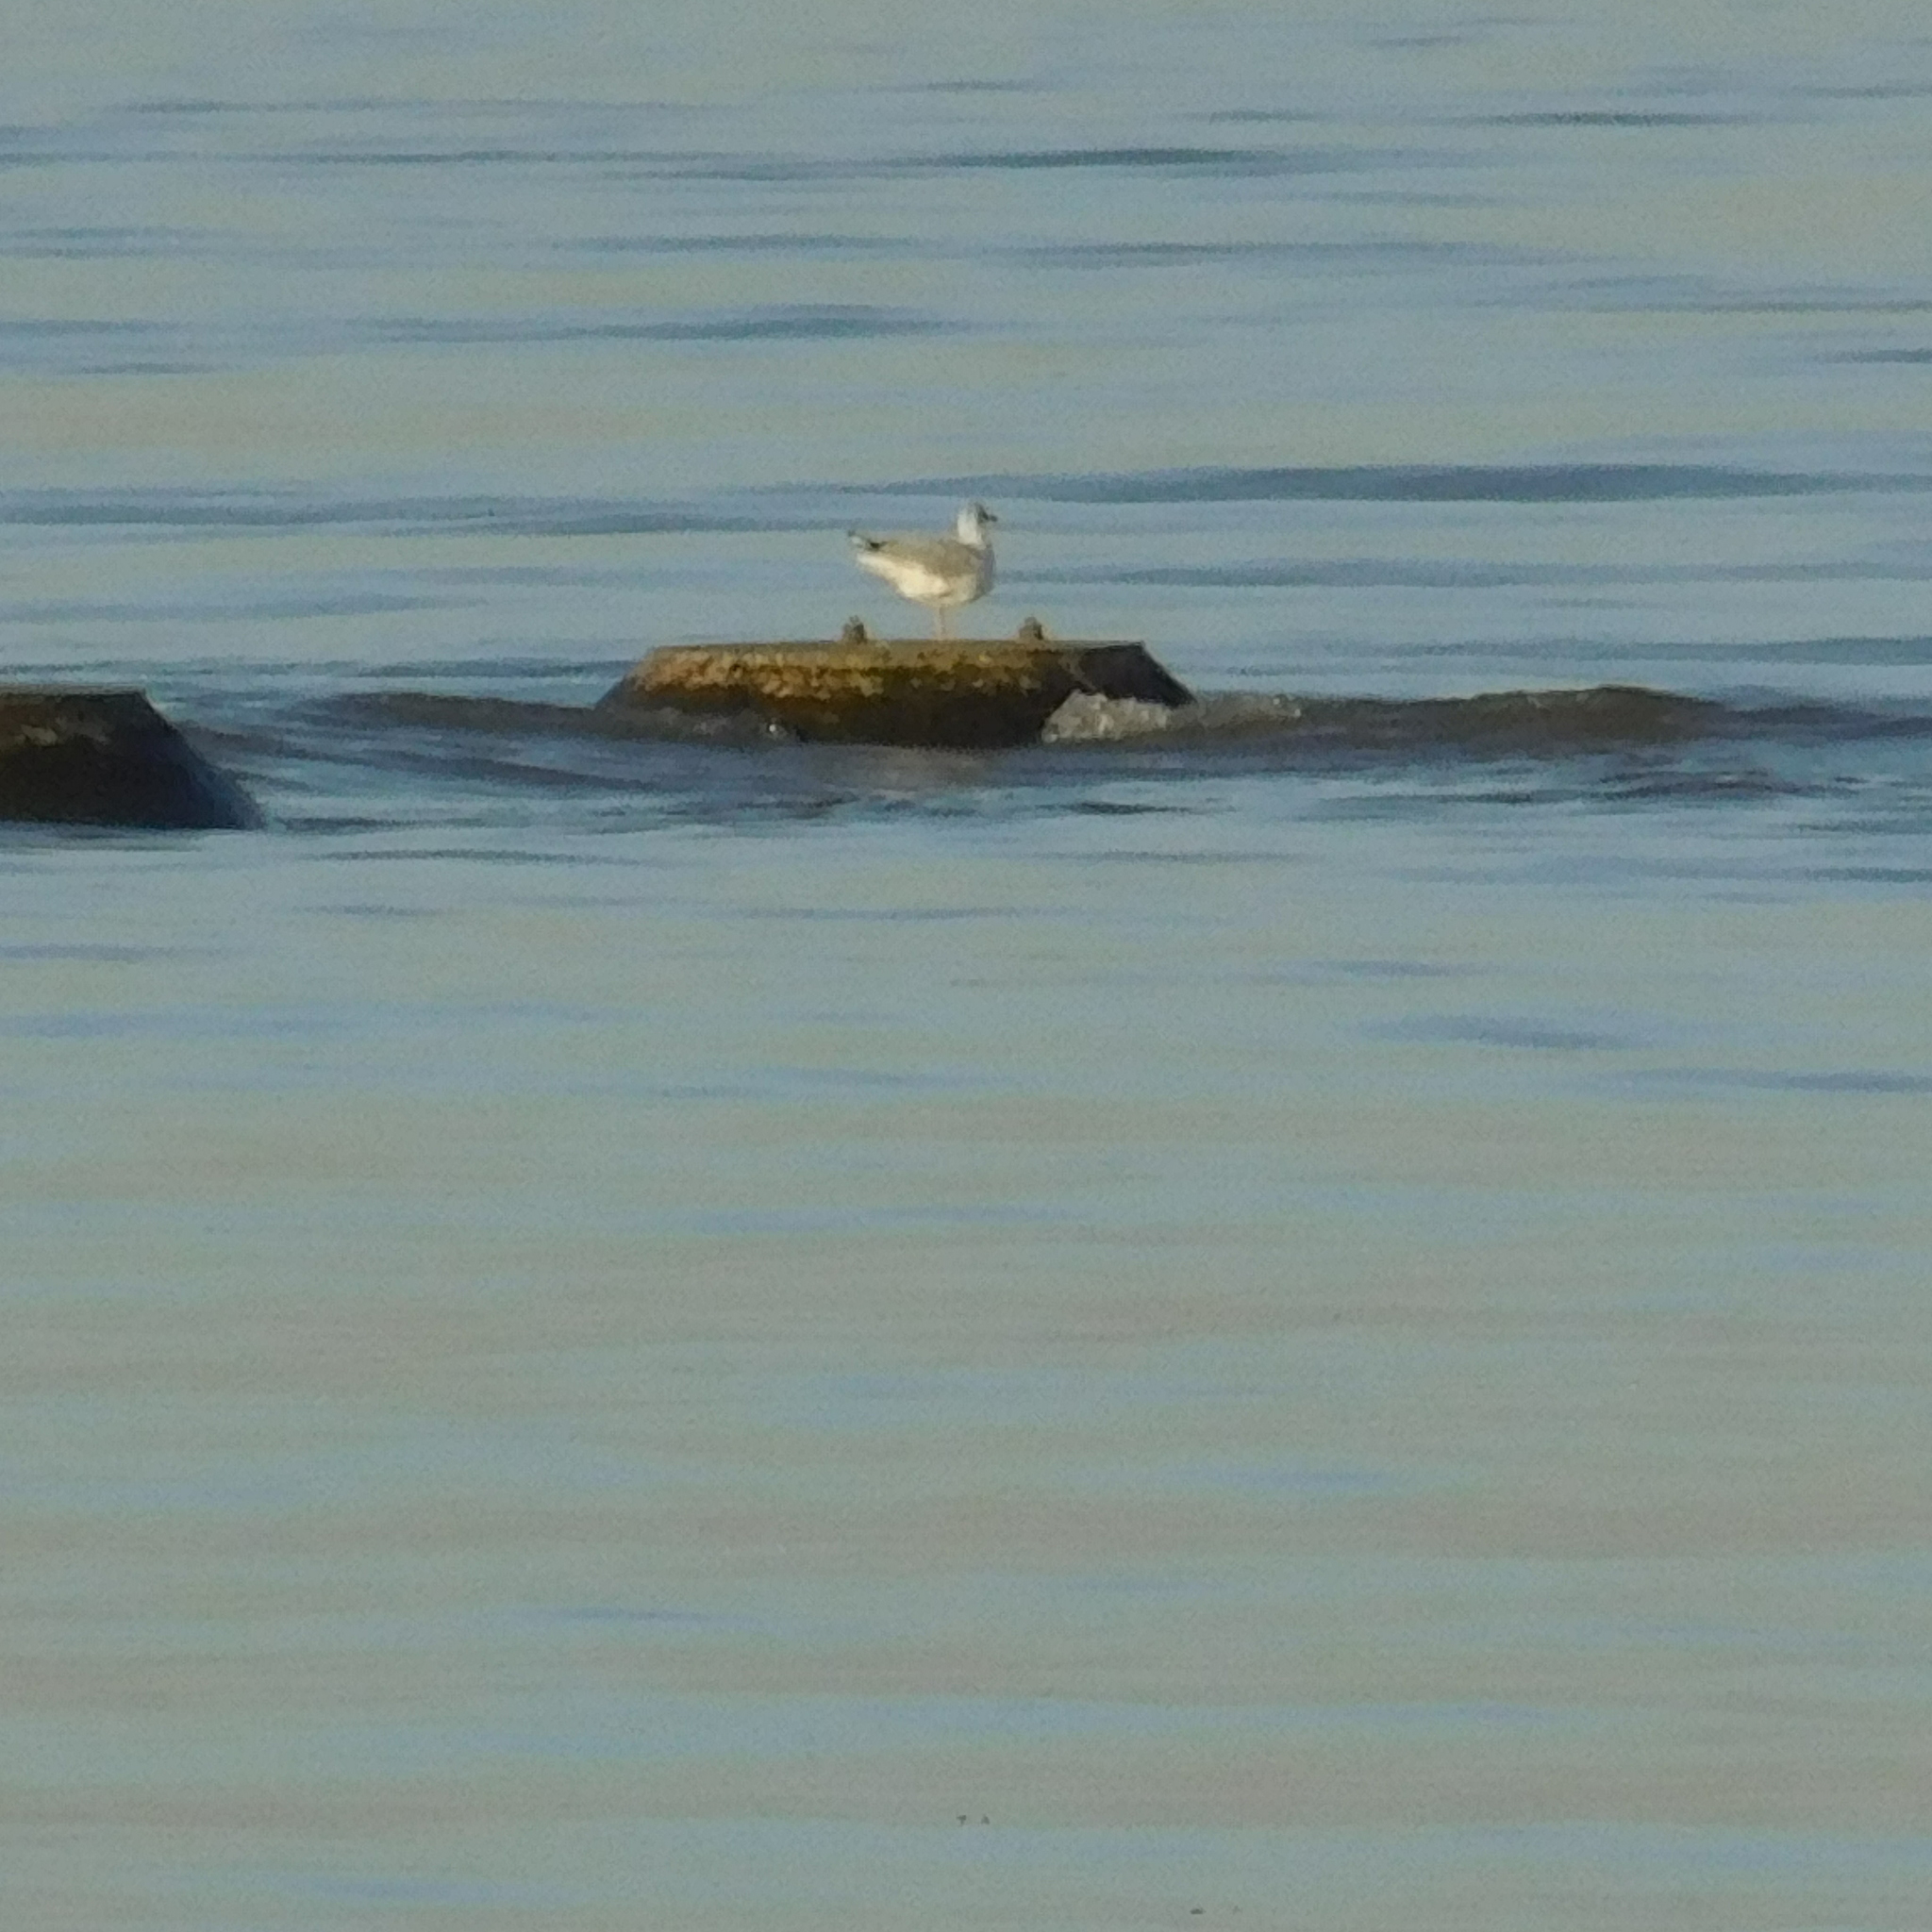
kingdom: Animalia
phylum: Chordata
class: Aves
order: Charadriiformes
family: Laridae
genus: Chroicocephalus
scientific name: Chroicocephalus maculipennis
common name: Brown-hooded gull
